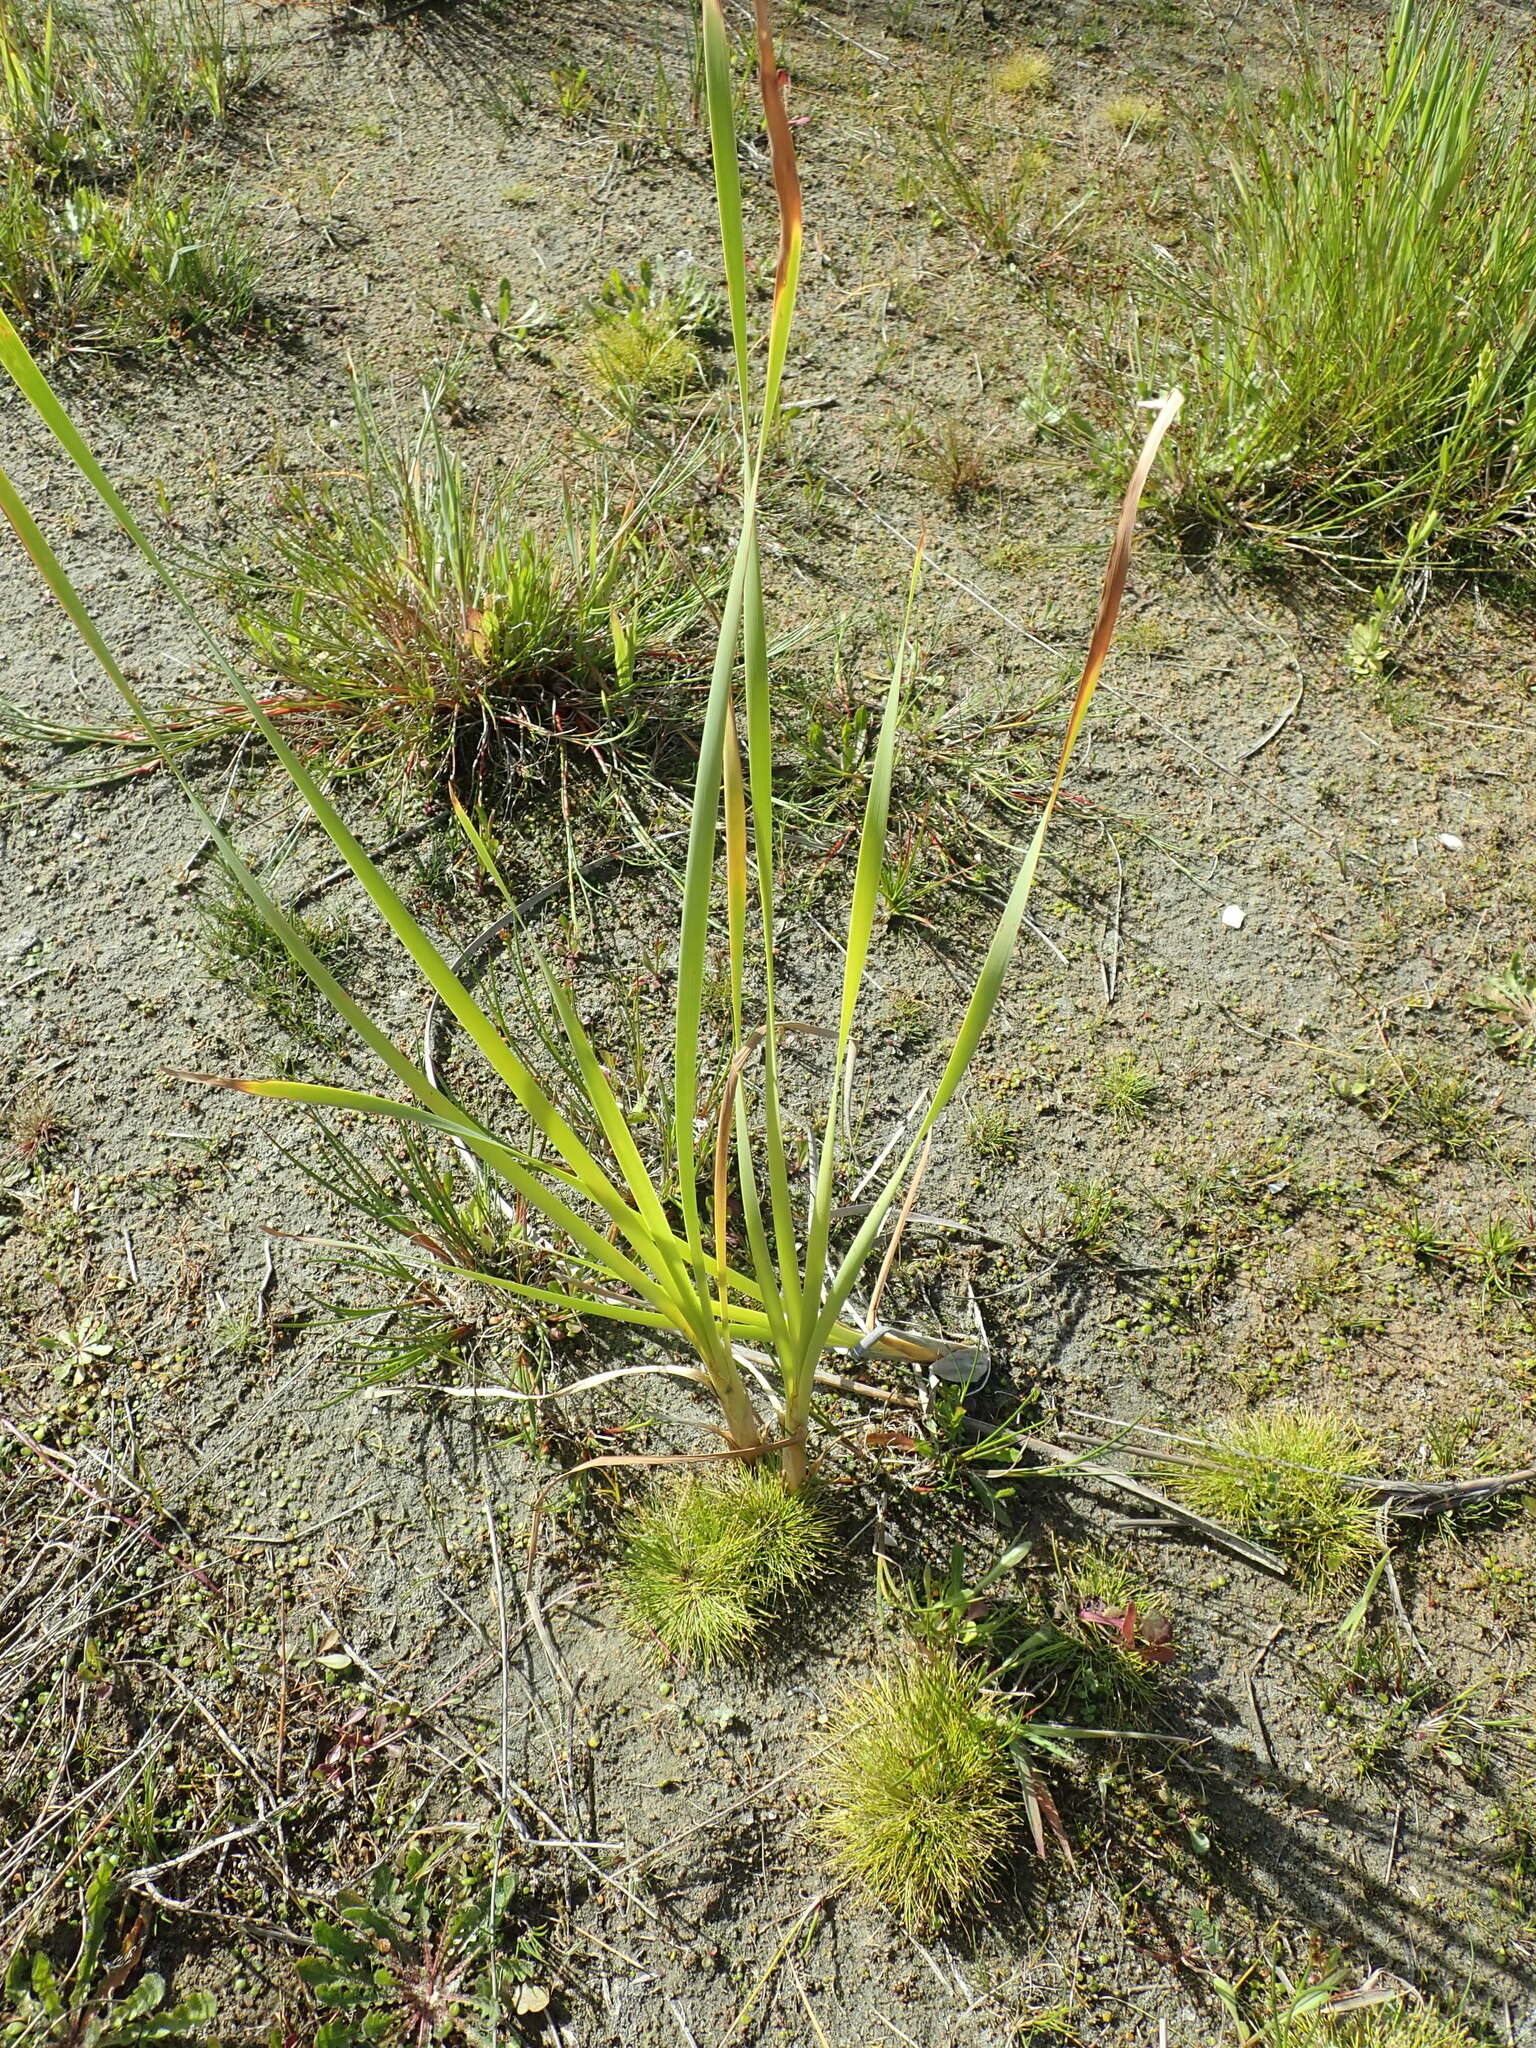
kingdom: Plantae
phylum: Tracheophyta
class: Liliopsida
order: Poales
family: Typhaceae
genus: Typha
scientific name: Typha orientalis
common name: Bullrush
